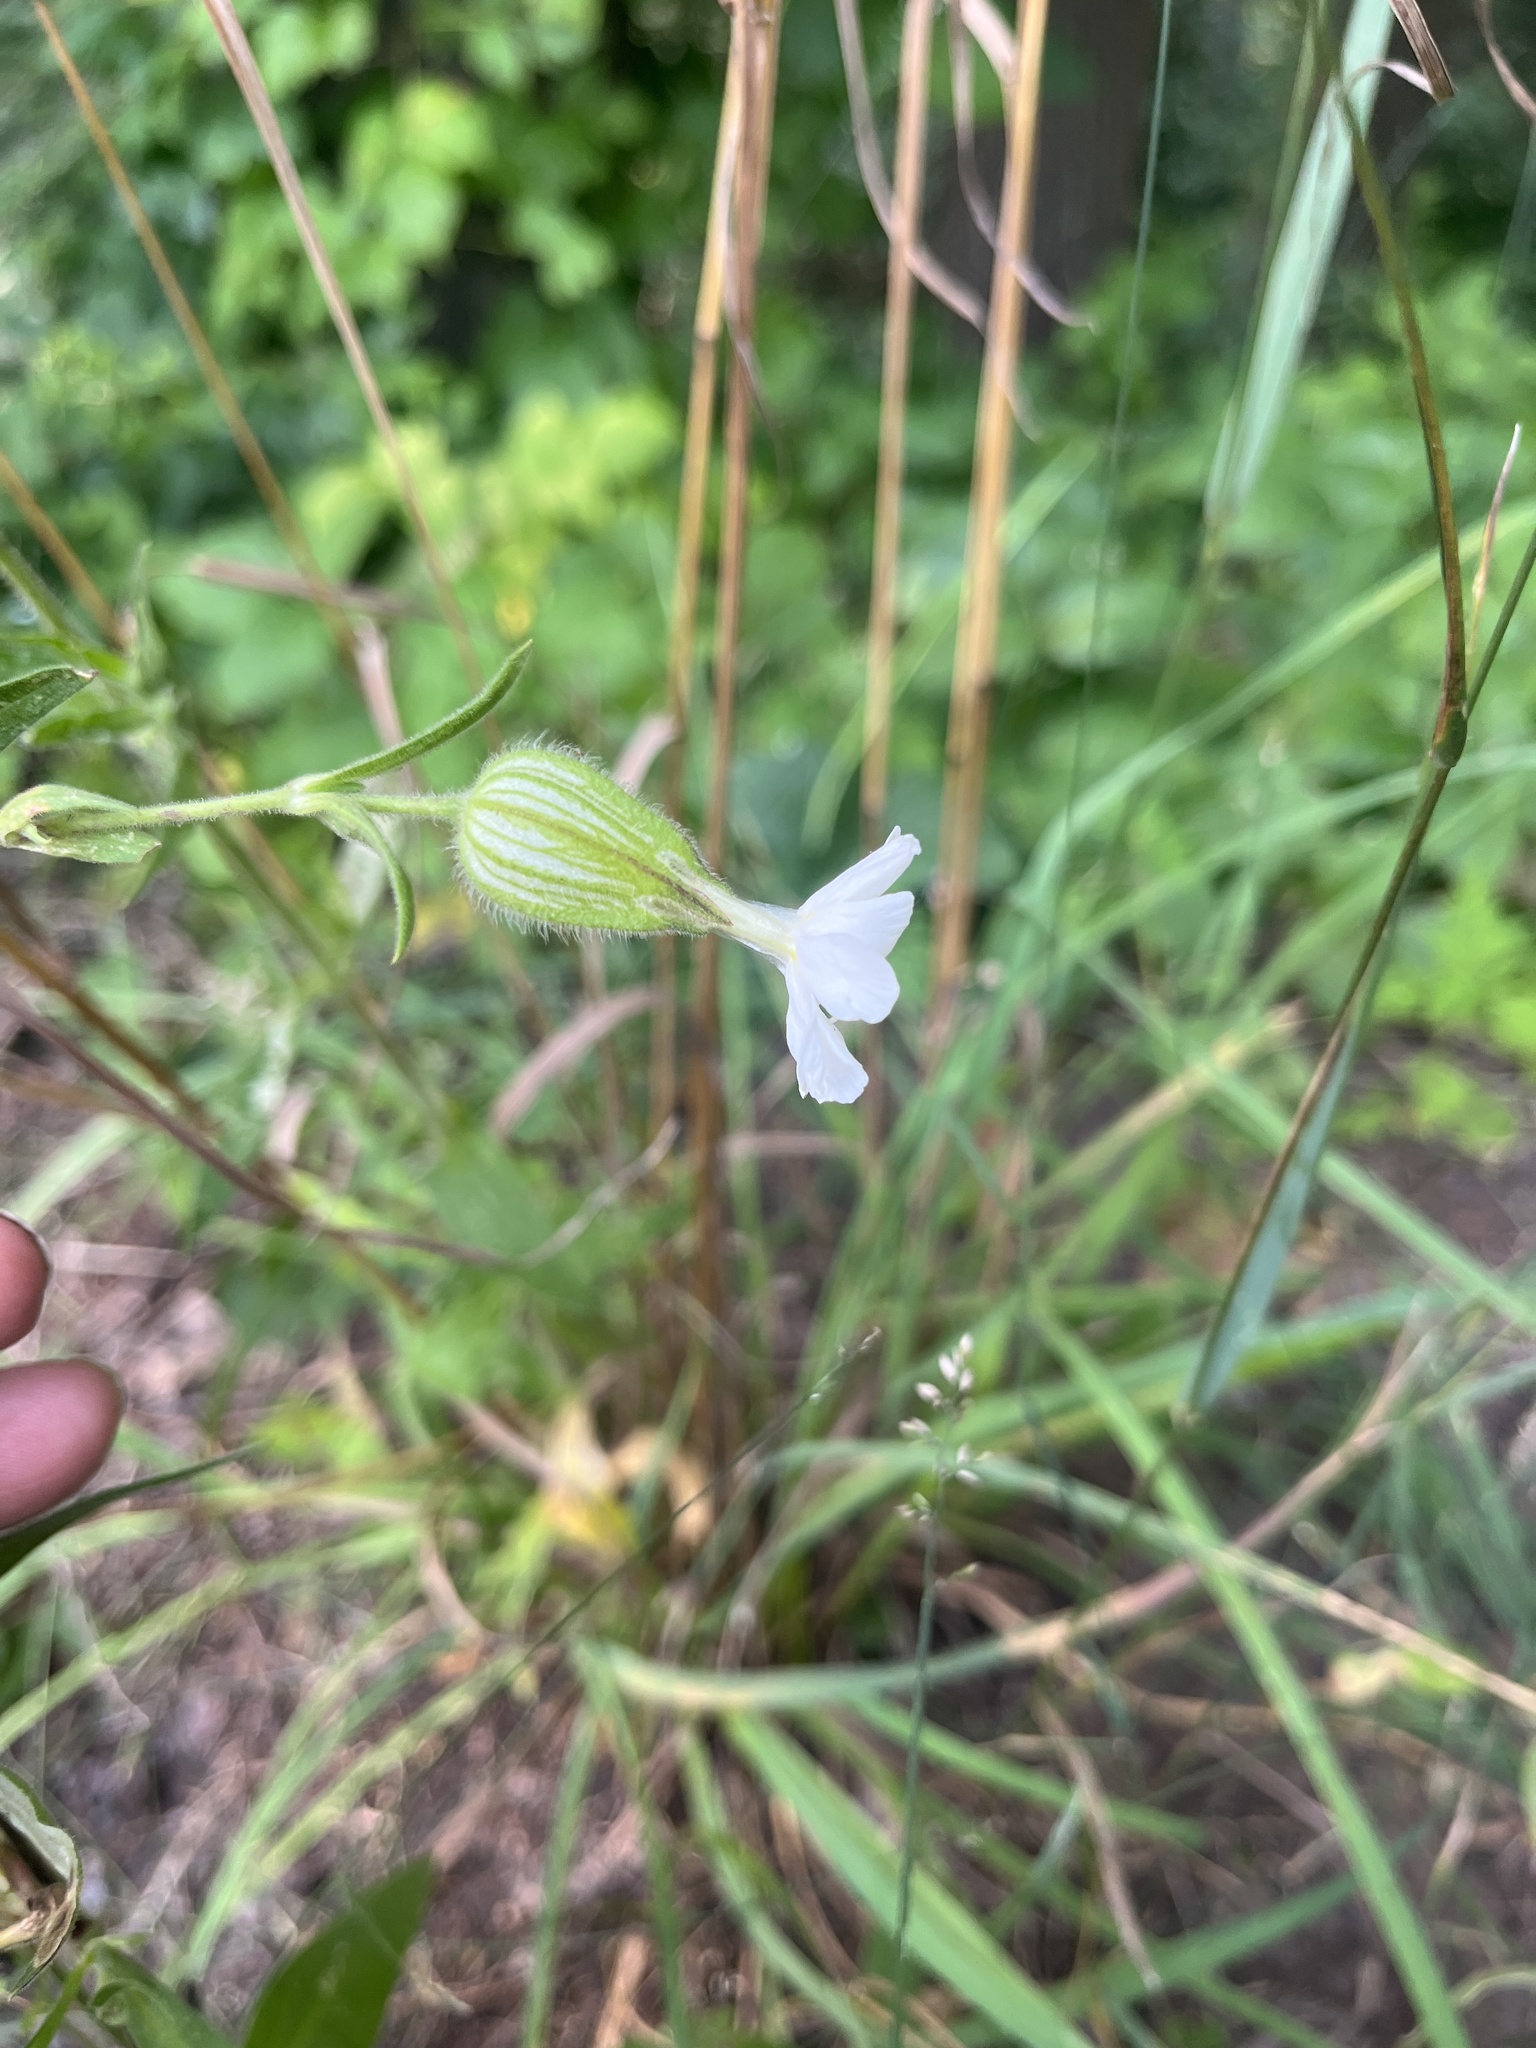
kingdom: Plantae
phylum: Tracheophyta
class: Magnoliopsida
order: Caryophyllales
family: Caryophyllaceae
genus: Silene
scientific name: Silene latifolia
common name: White campion
